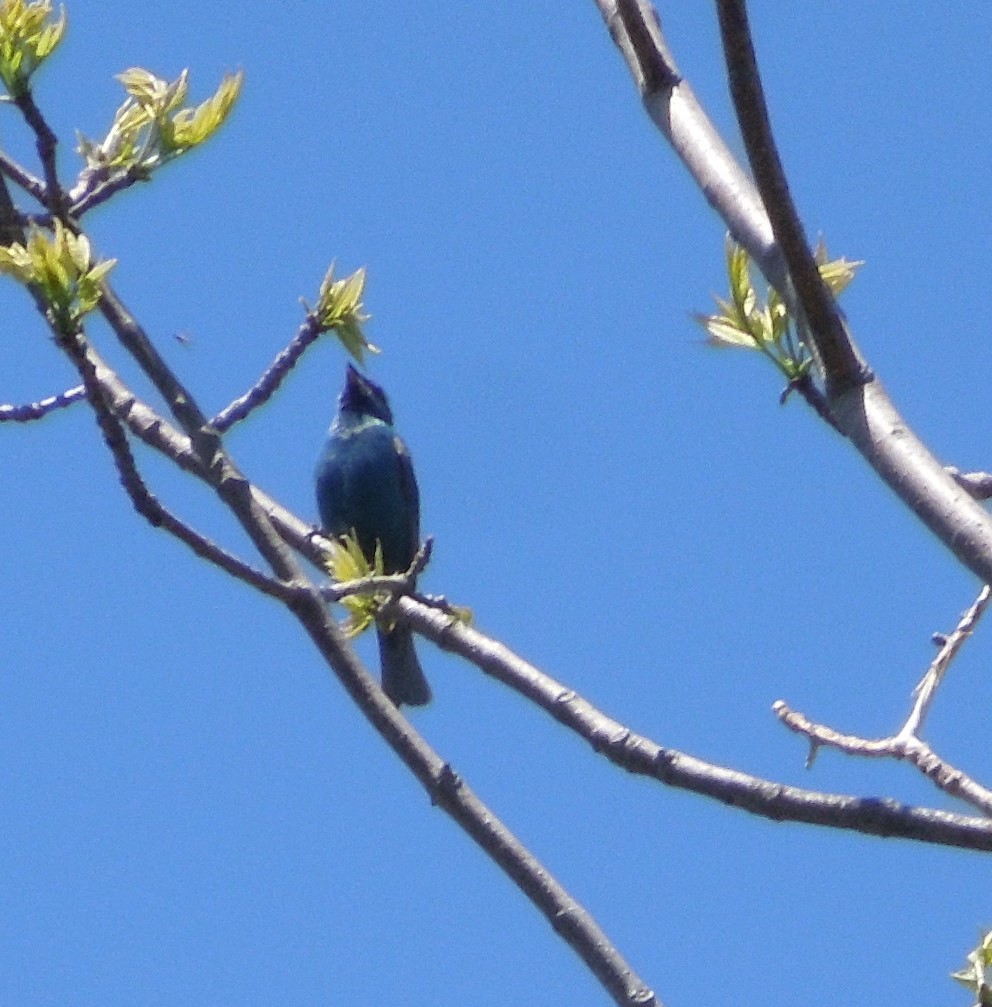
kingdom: Animalia
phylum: Chordata
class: Aves
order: Passeriformes
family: Cardinalidae
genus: Passerina
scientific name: Passerina cyanea
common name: Indigo bunting
